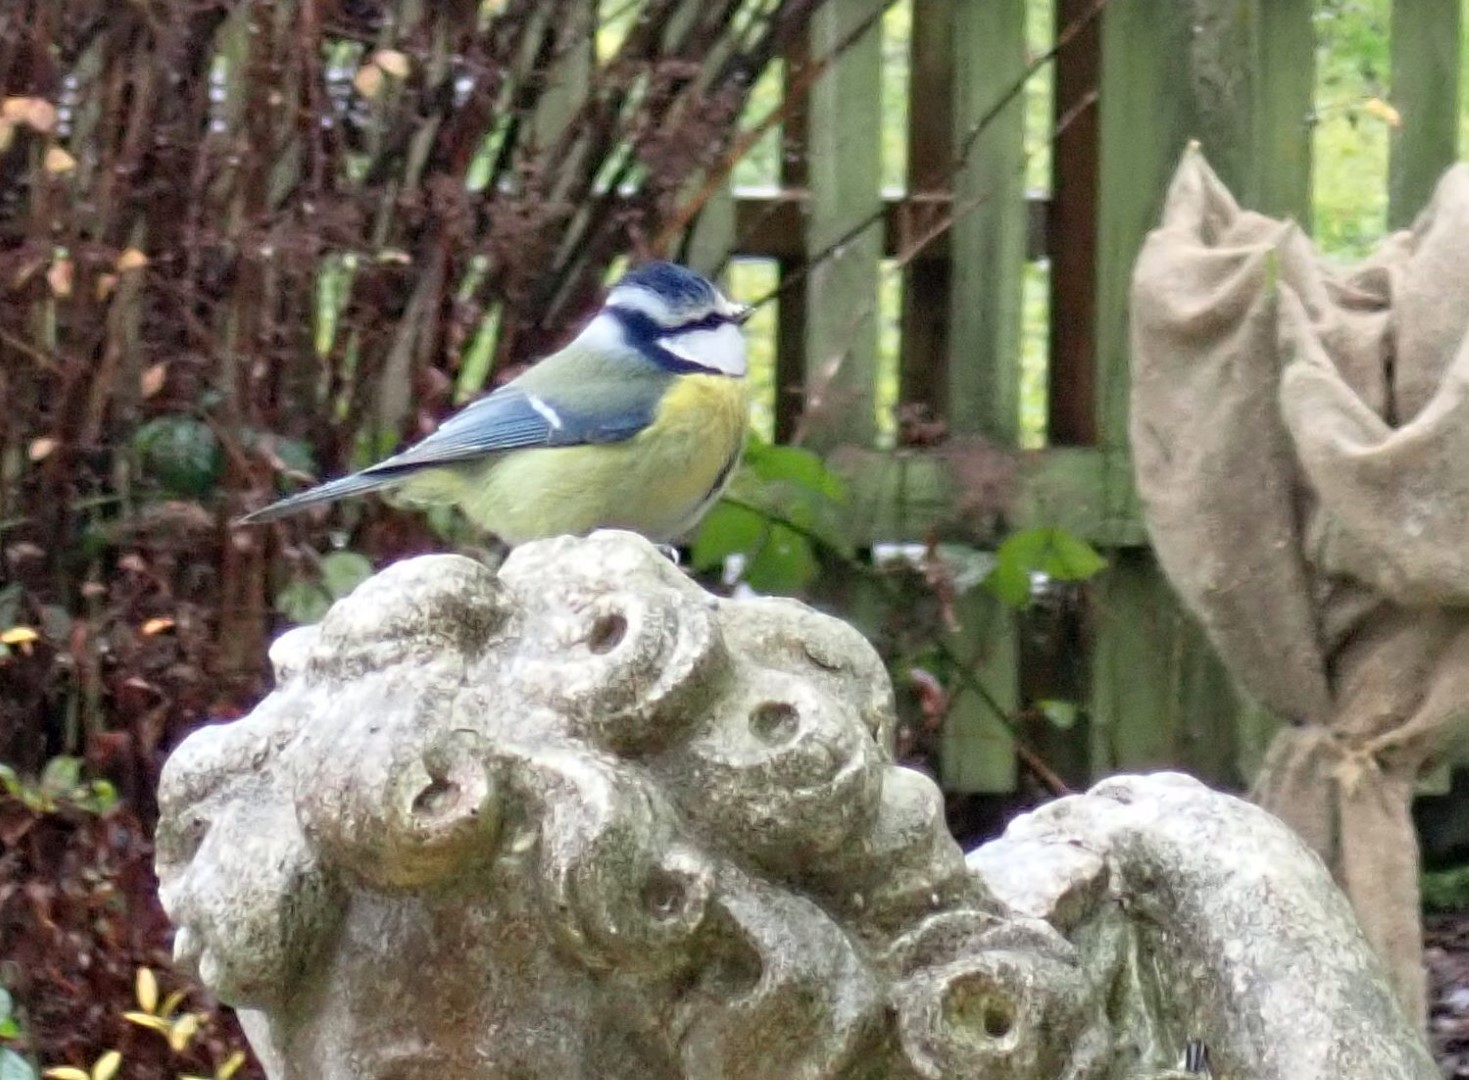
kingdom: Animalia
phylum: Chordata
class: Aves
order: Passeriformes
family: Paridae
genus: Cyanistes
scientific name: Cyanistes caeruleus
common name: Eurasian blue tit
